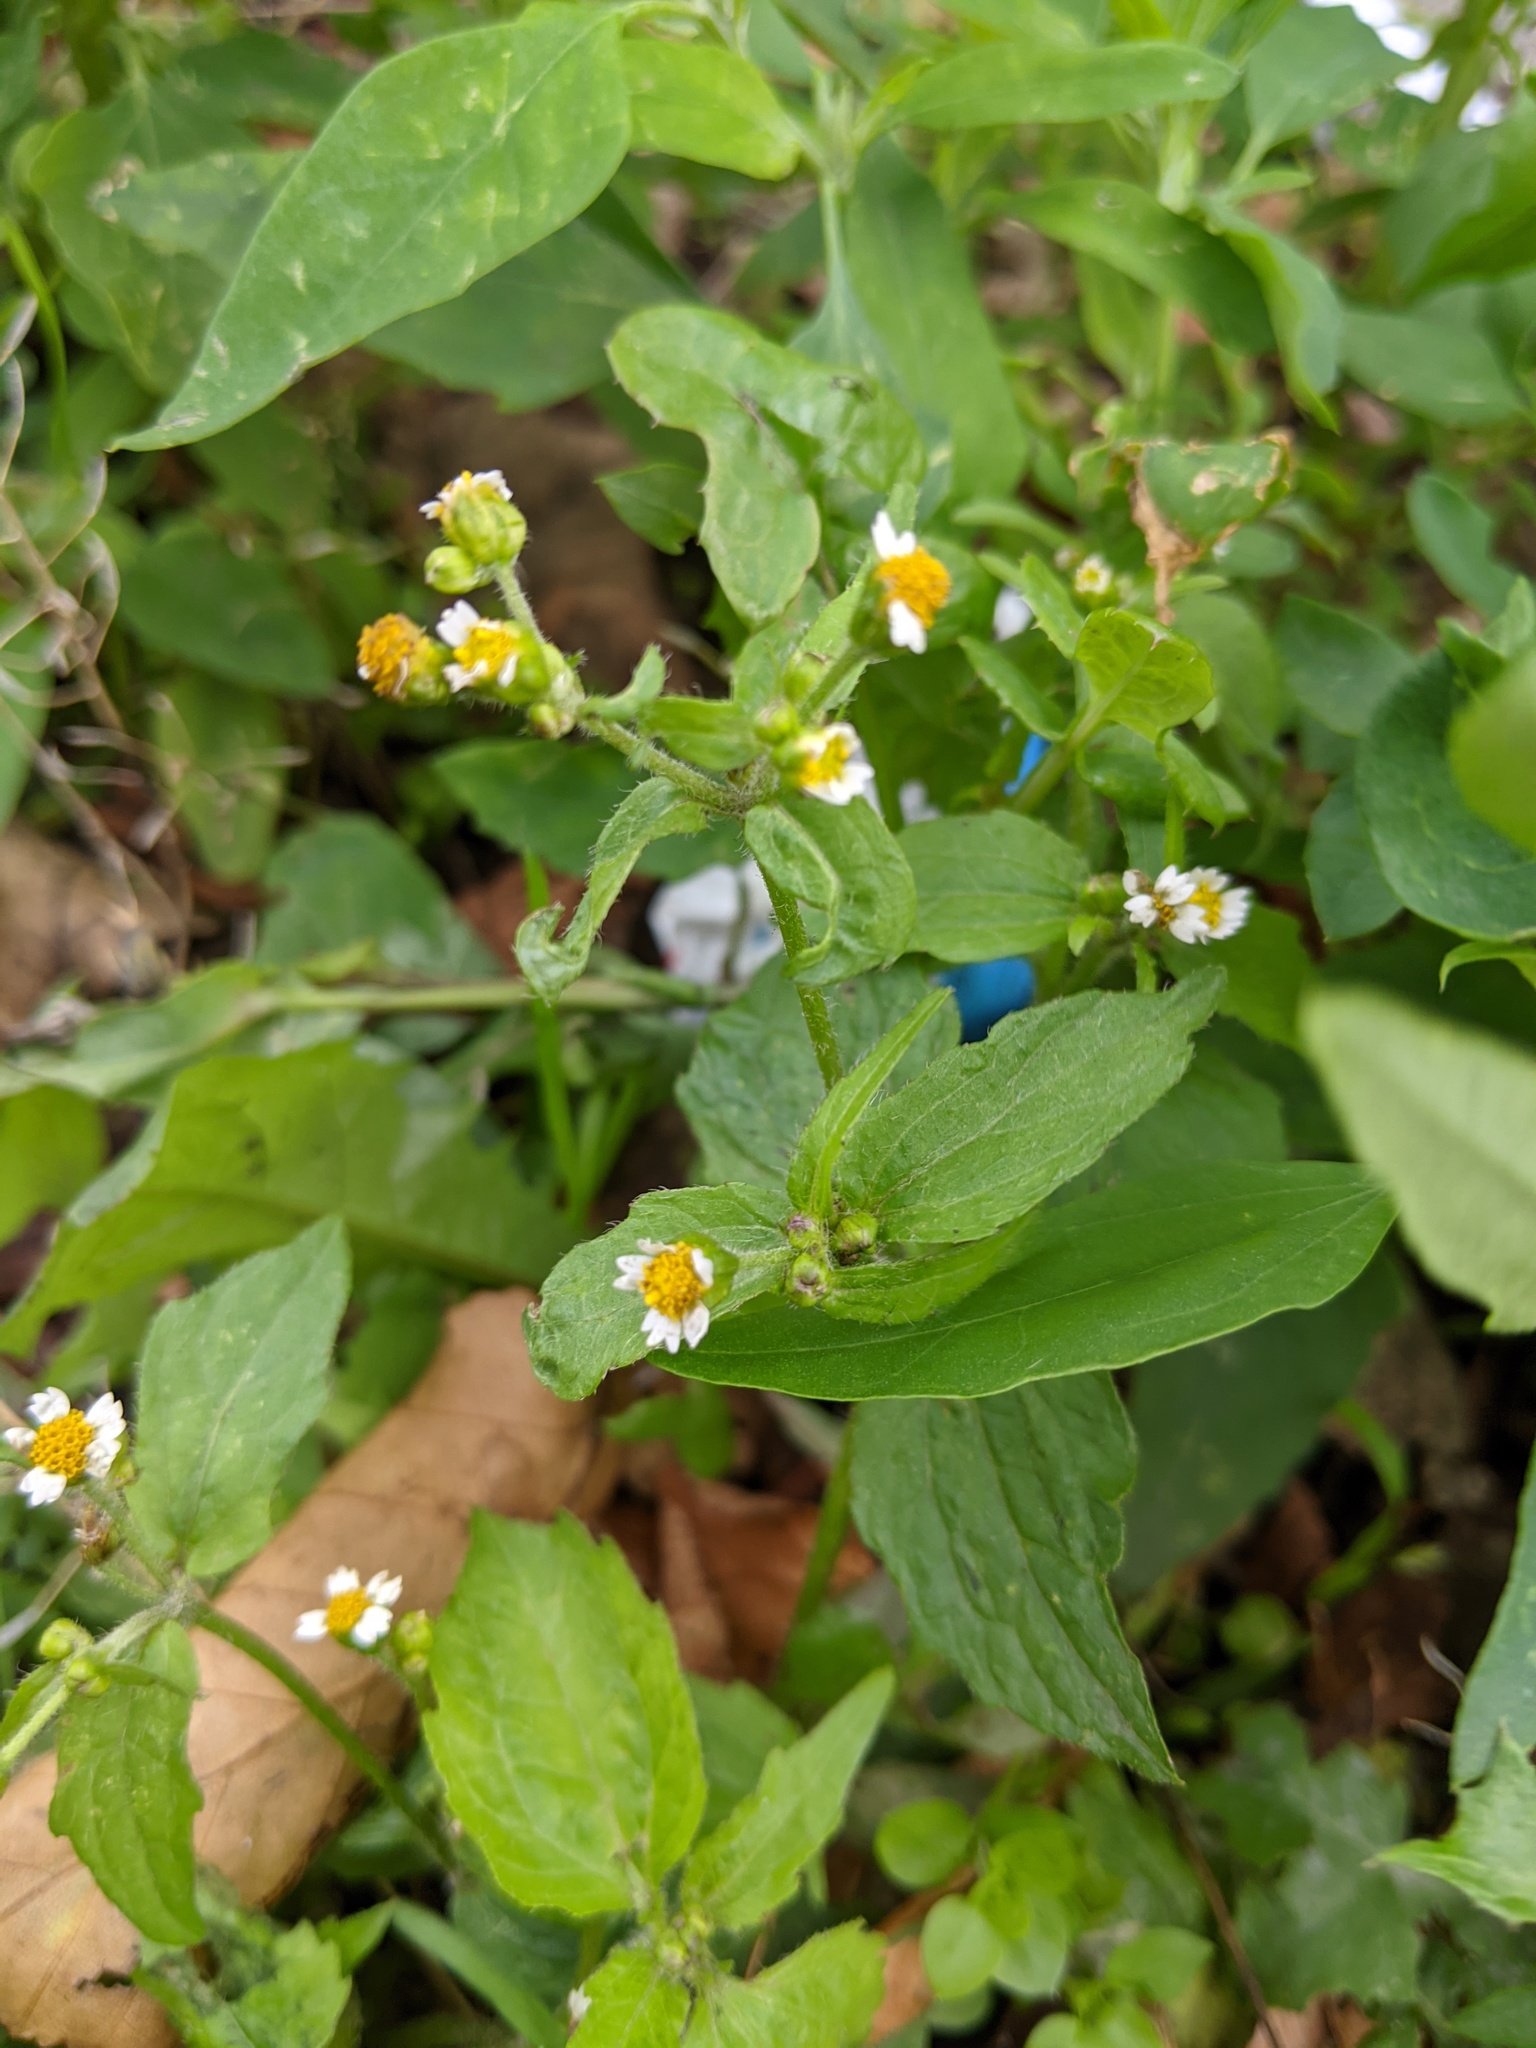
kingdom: Plantae
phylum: Tracheophyta
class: Magnoliopsida
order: Asterales
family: Asteraceae
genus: Galinsoga
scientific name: Galinsoga quadriradiata
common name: Shaggy soldier
